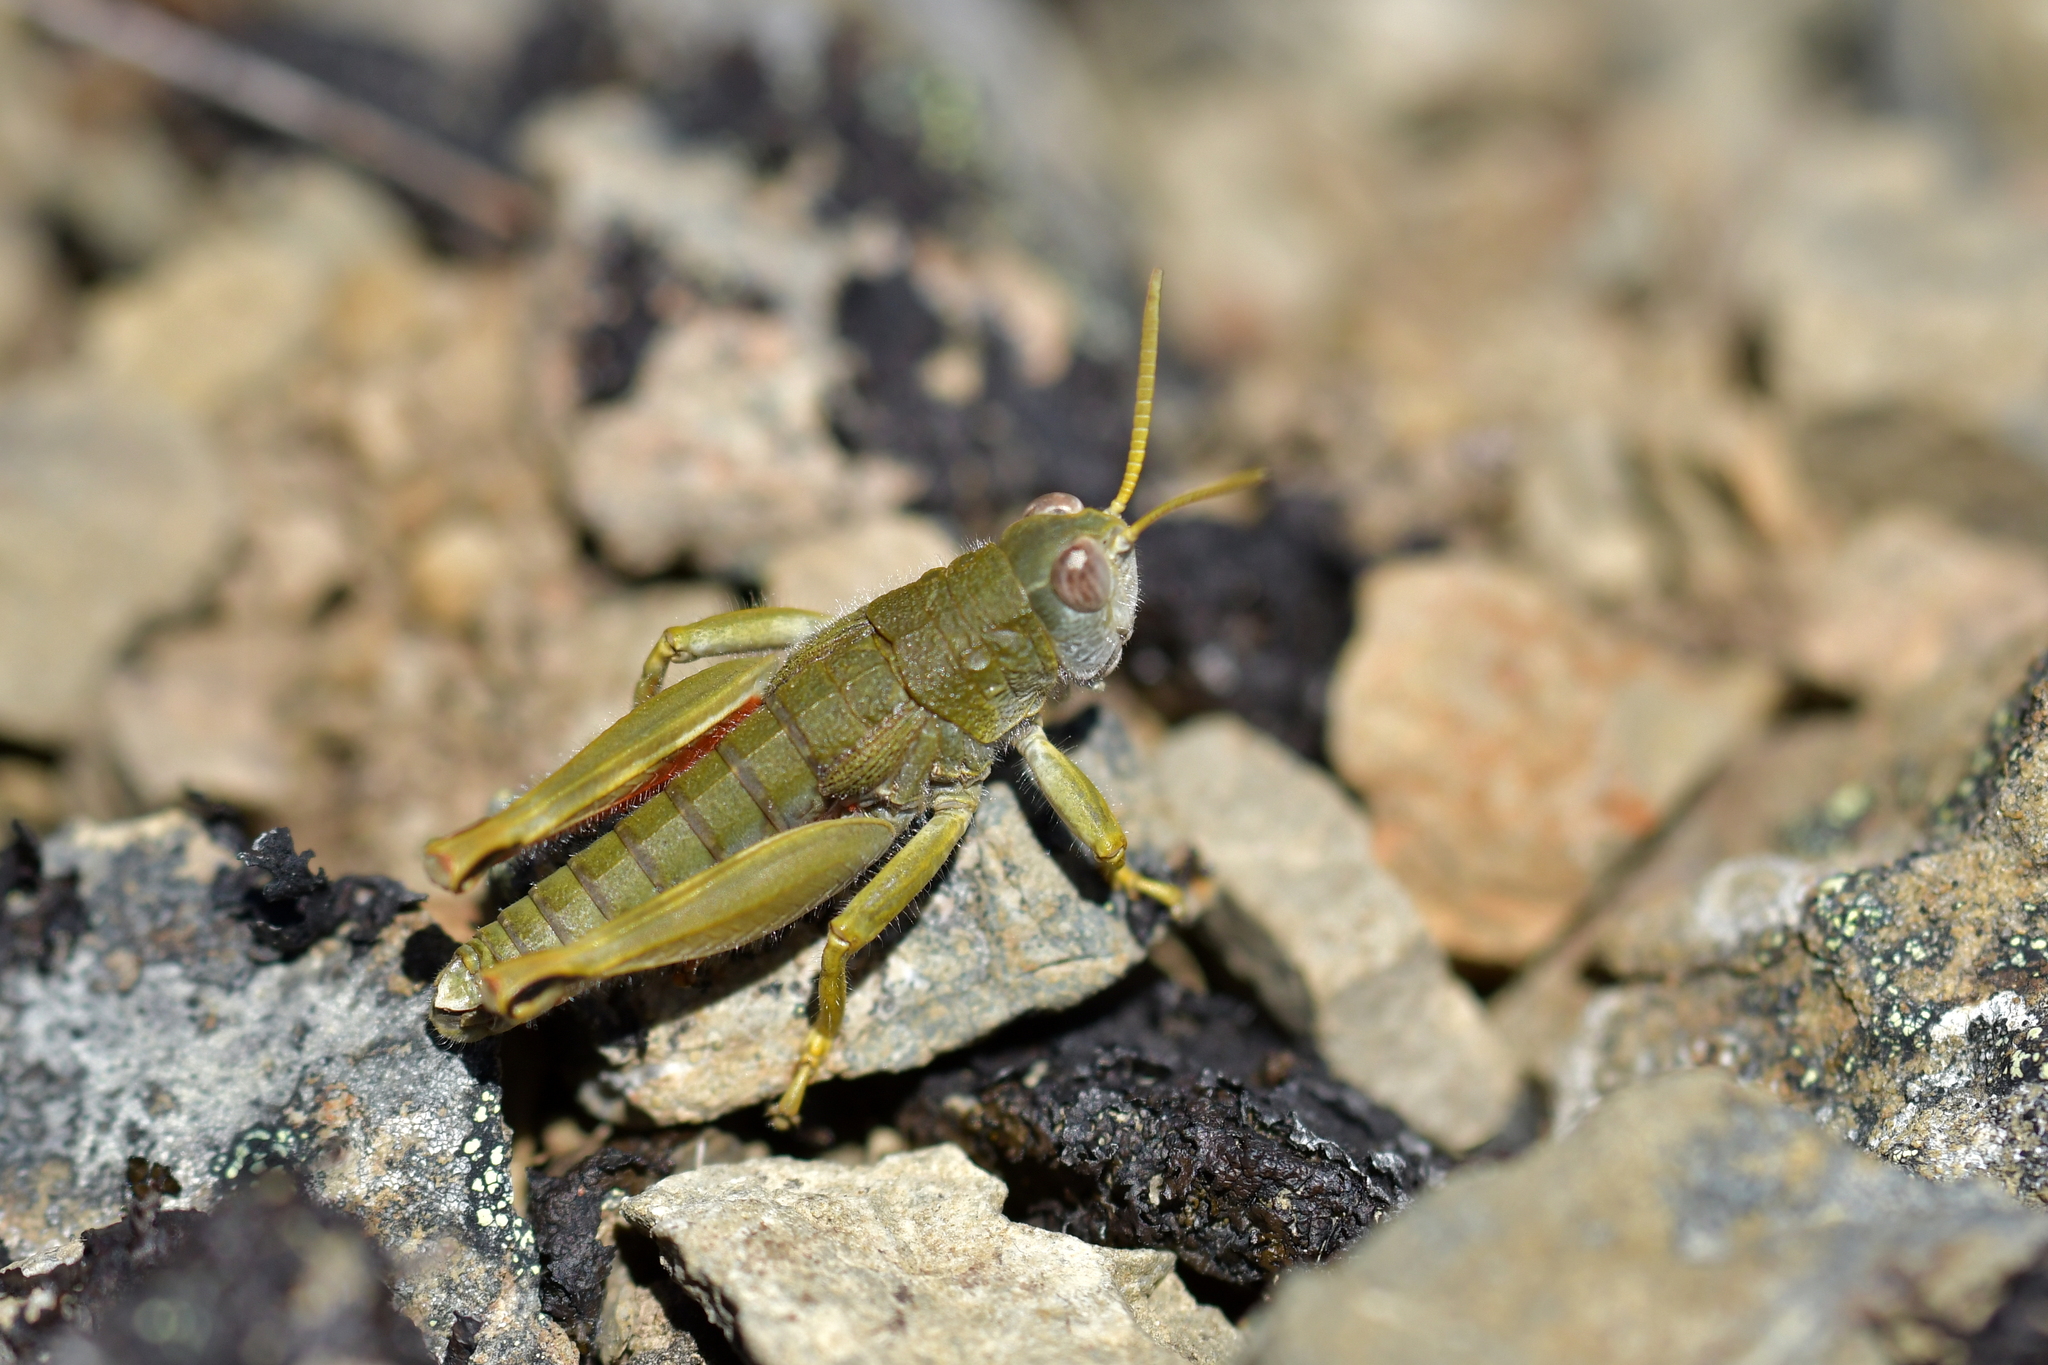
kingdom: Animalia
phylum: Arthropoda
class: Insecta
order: Orthoptera
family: Acrididae
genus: Sigaus
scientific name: Sigaus
